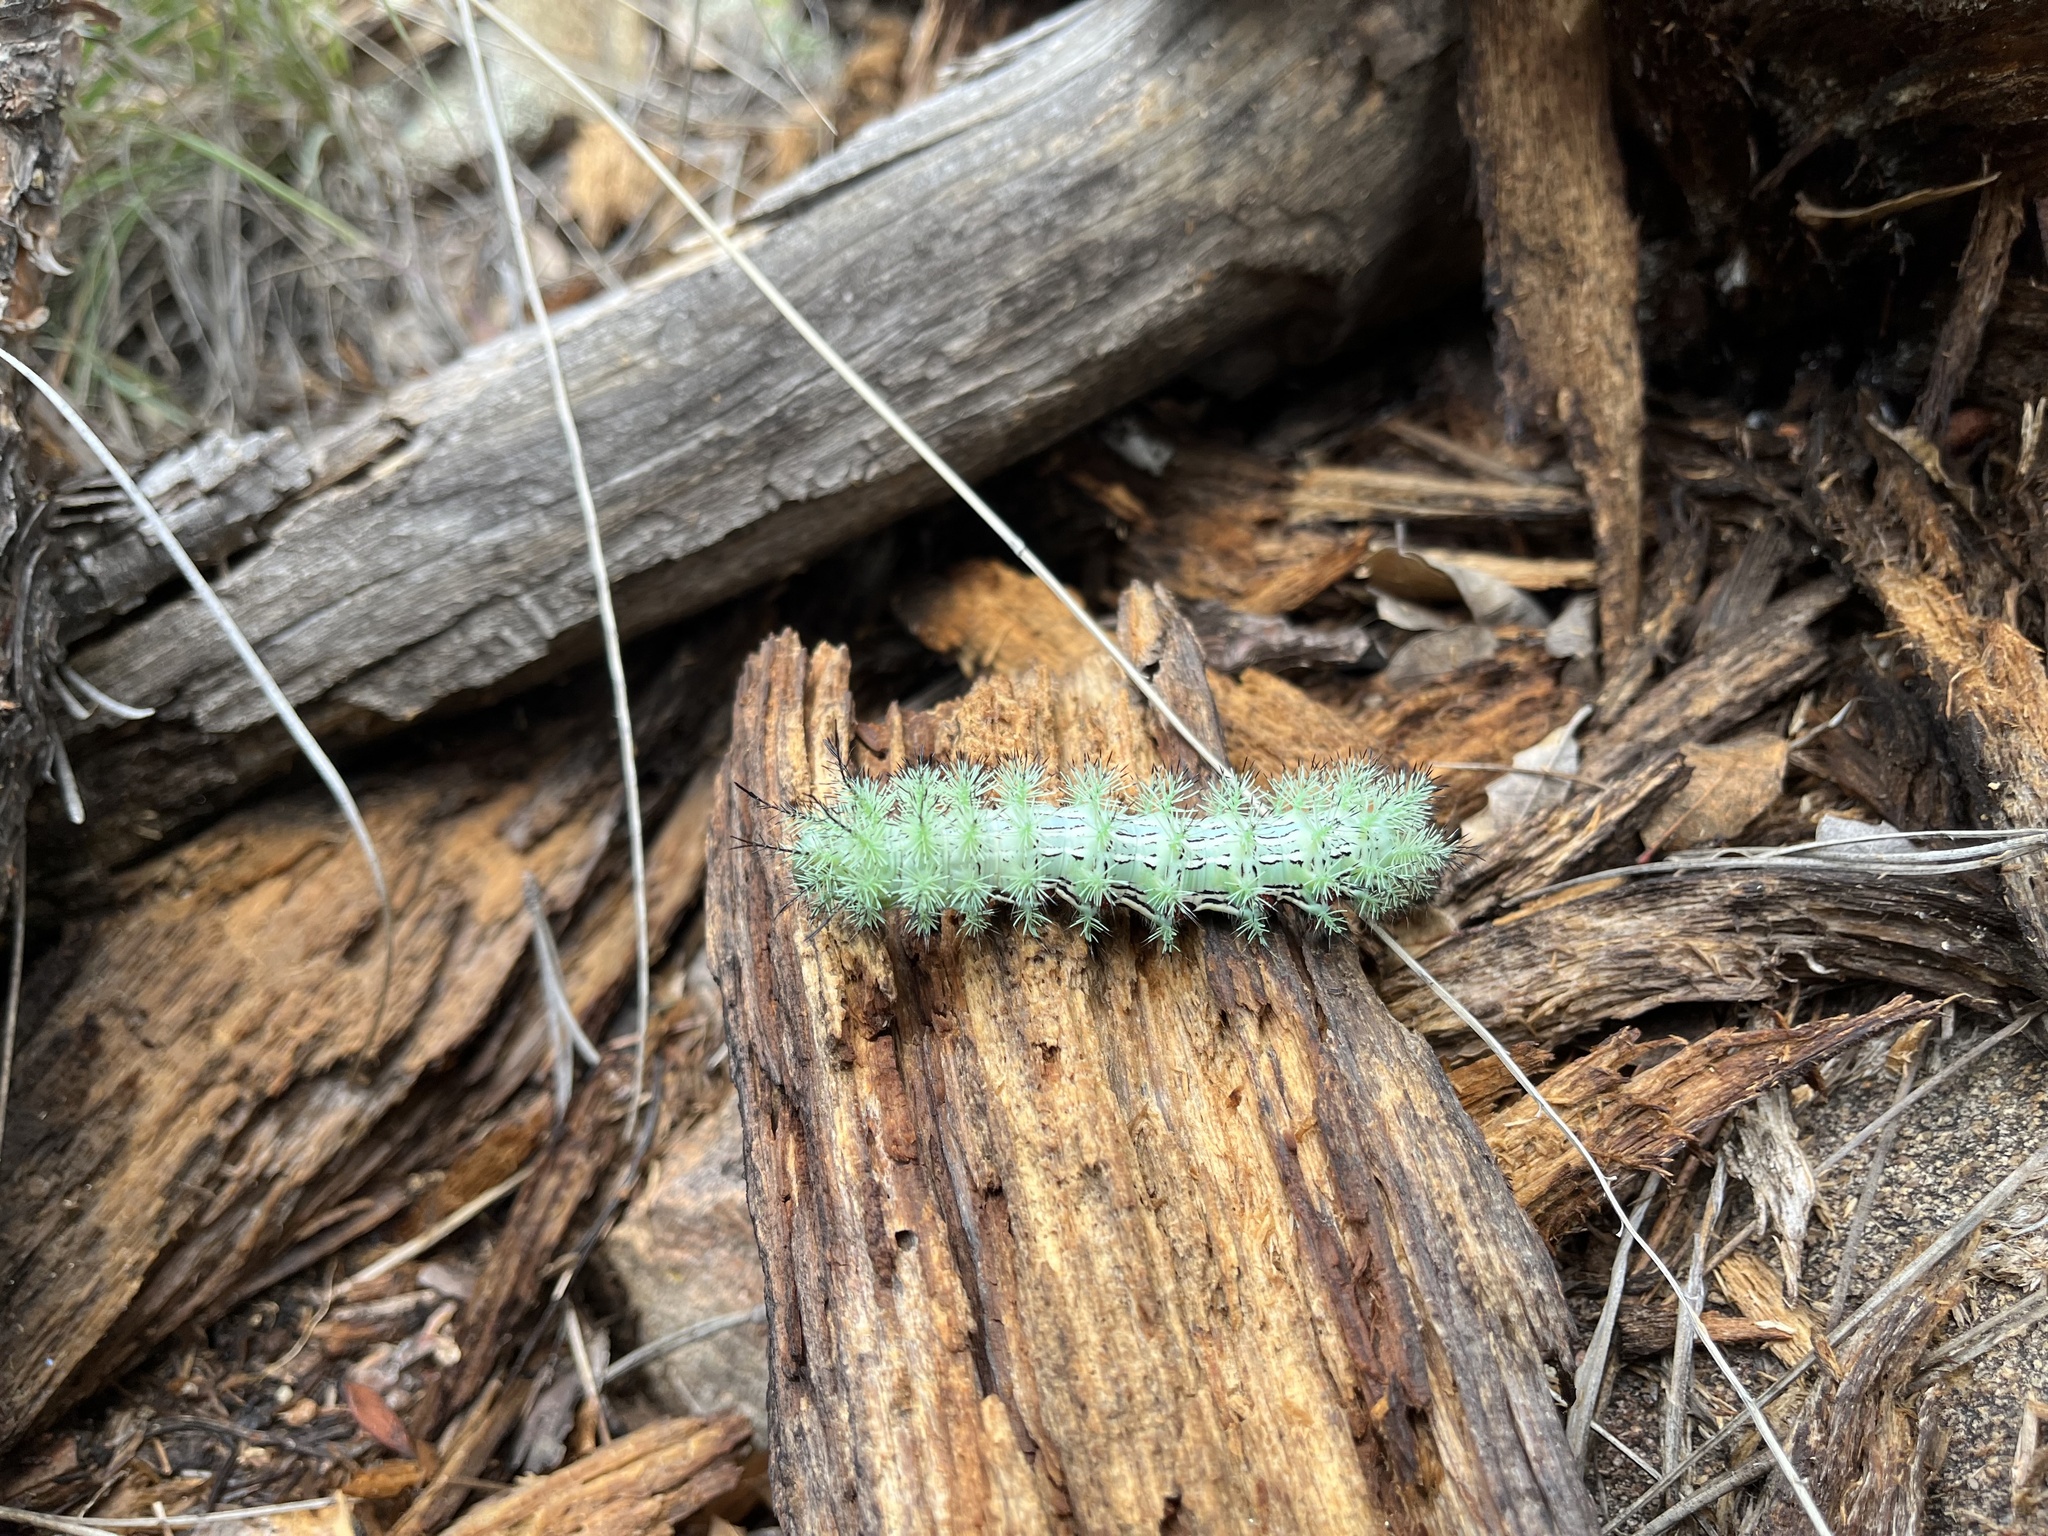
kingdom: Animalia
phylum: Arthropoda
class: Insecta
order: Lepidoptera
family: Saturniidae
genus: Automeris
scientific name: Automeris cecrops
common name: Cecrops eyed silkmoth
